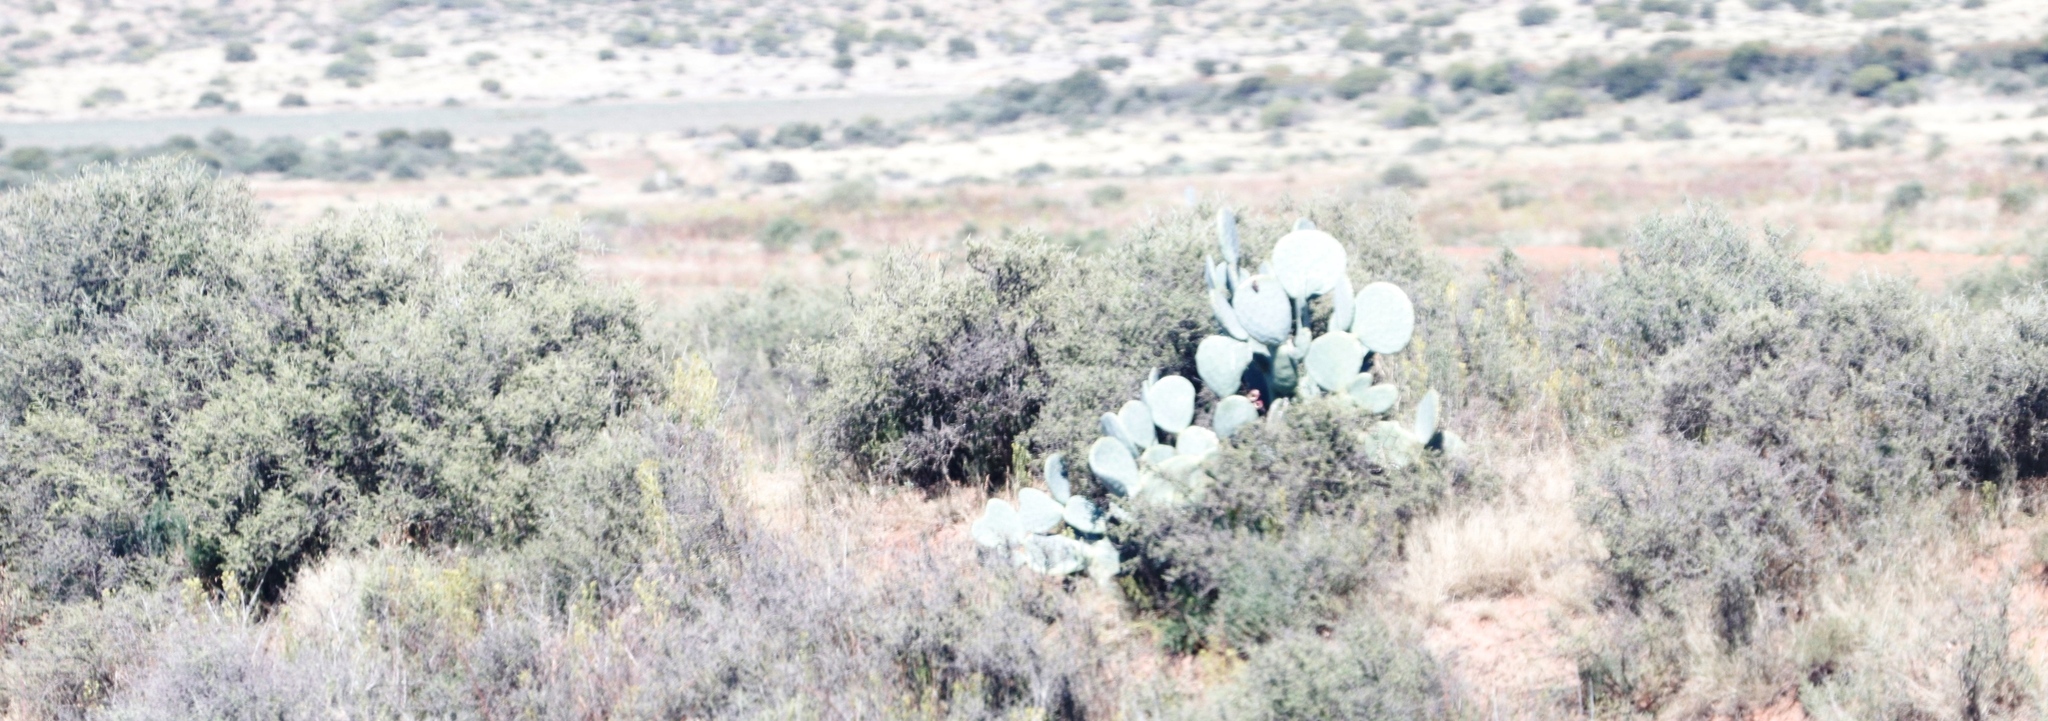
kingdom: Plantae
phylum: Tracheophyta
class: Magnoliopsida
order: Caryophyllales
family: Cactaceae
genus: Opuntia
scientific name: Opuntia robusta
